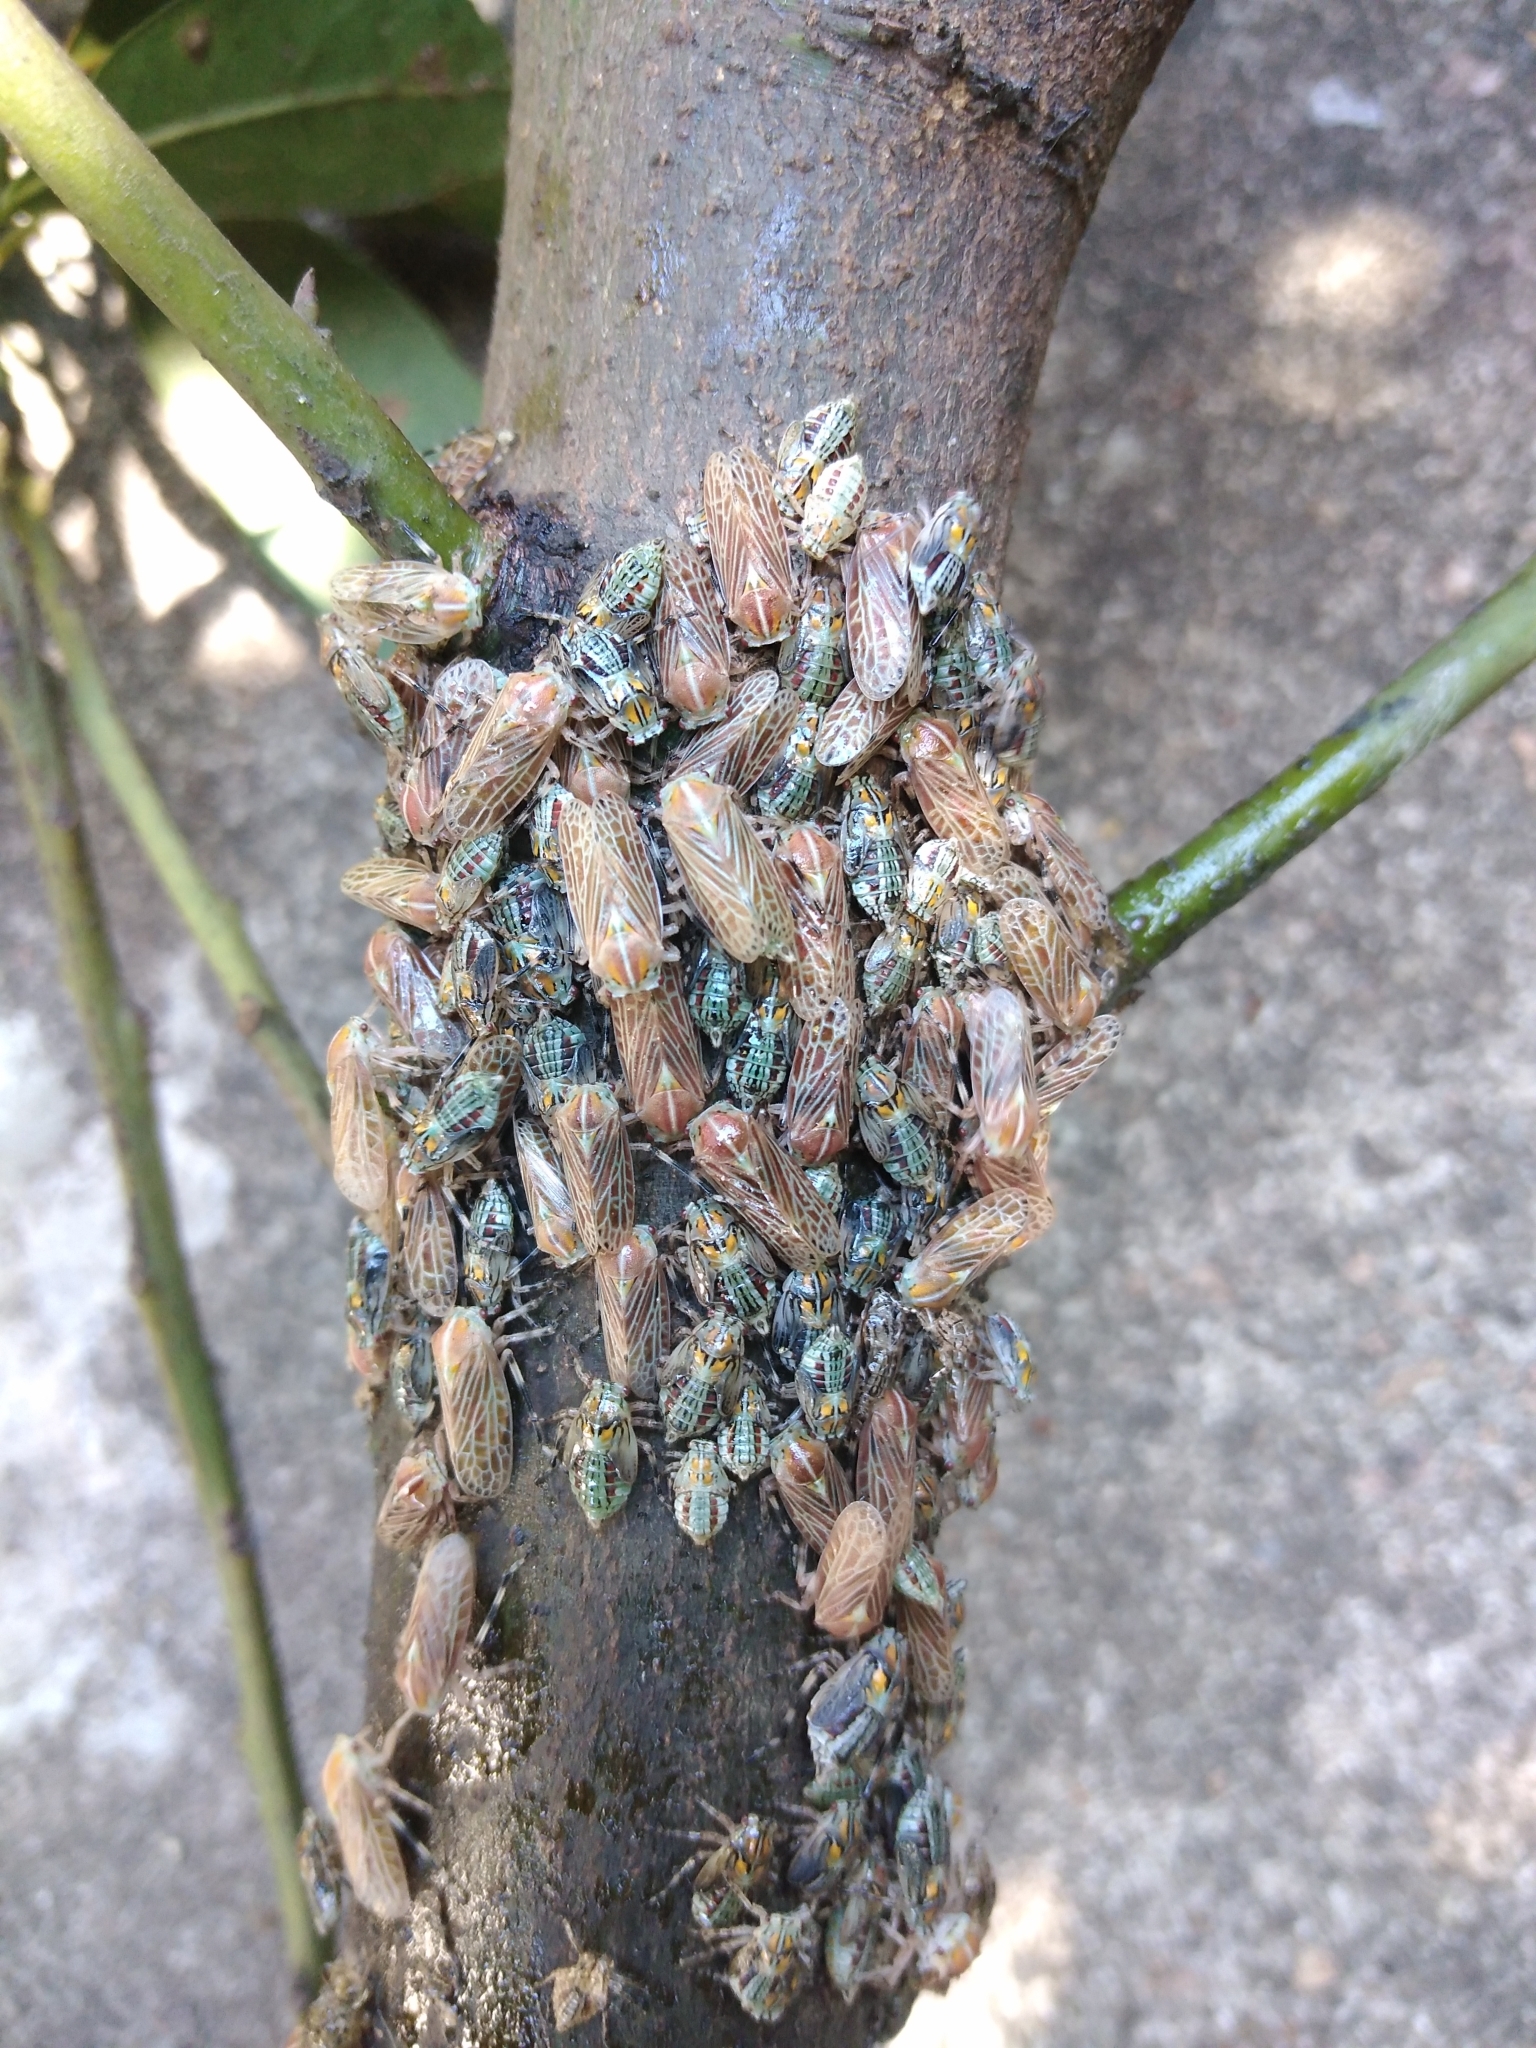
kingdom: Animalia
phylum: Arthropoda
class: Insecta
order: Hemiptera
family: Aetalionidae
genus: Aetalion
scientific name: Aetalion reticulatum
